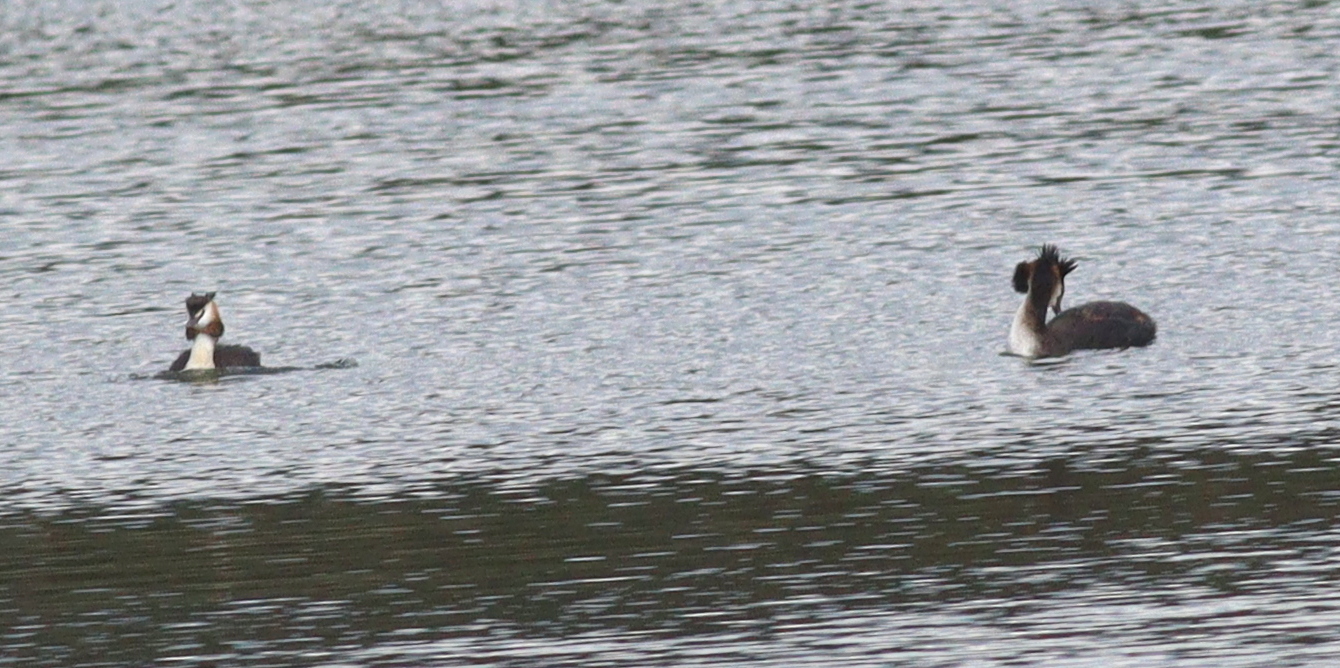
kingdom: Animalia
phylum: Chordata
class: Aves
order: Podicipediformes
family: Podicipedidae
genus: Podiceps
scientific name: Podiceps cristatus
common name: Great crested grebe
